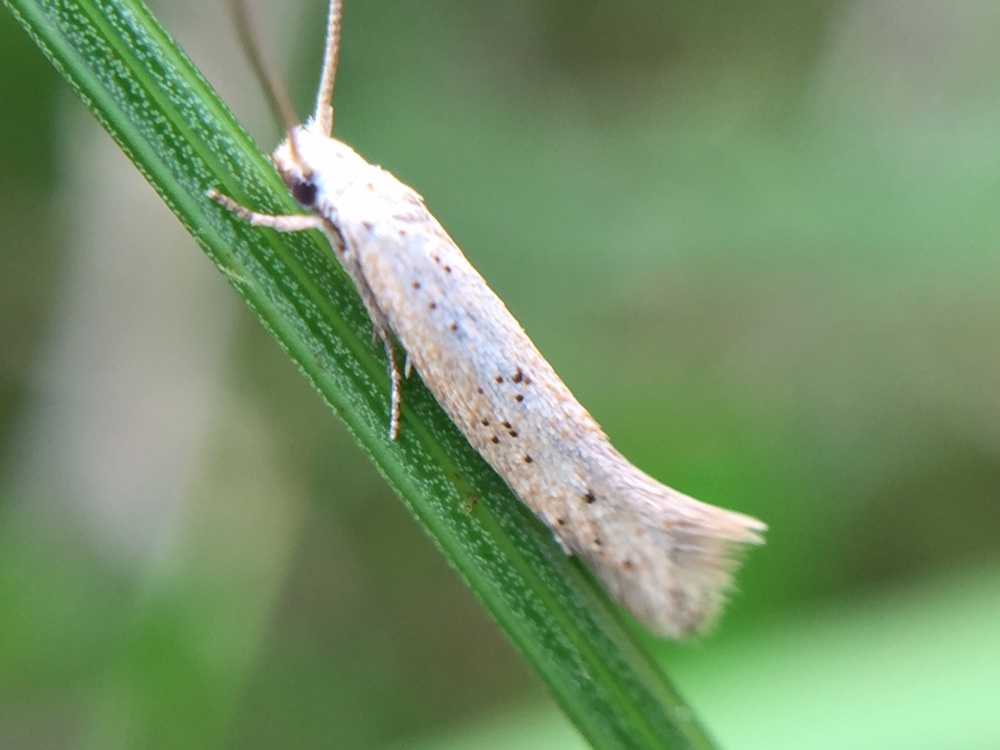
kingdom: Animalia
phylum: Arthropoda
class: Insecta
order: Lepidoptera
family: Elachistidae
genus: Elachista
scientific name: Elachista gerasmia
